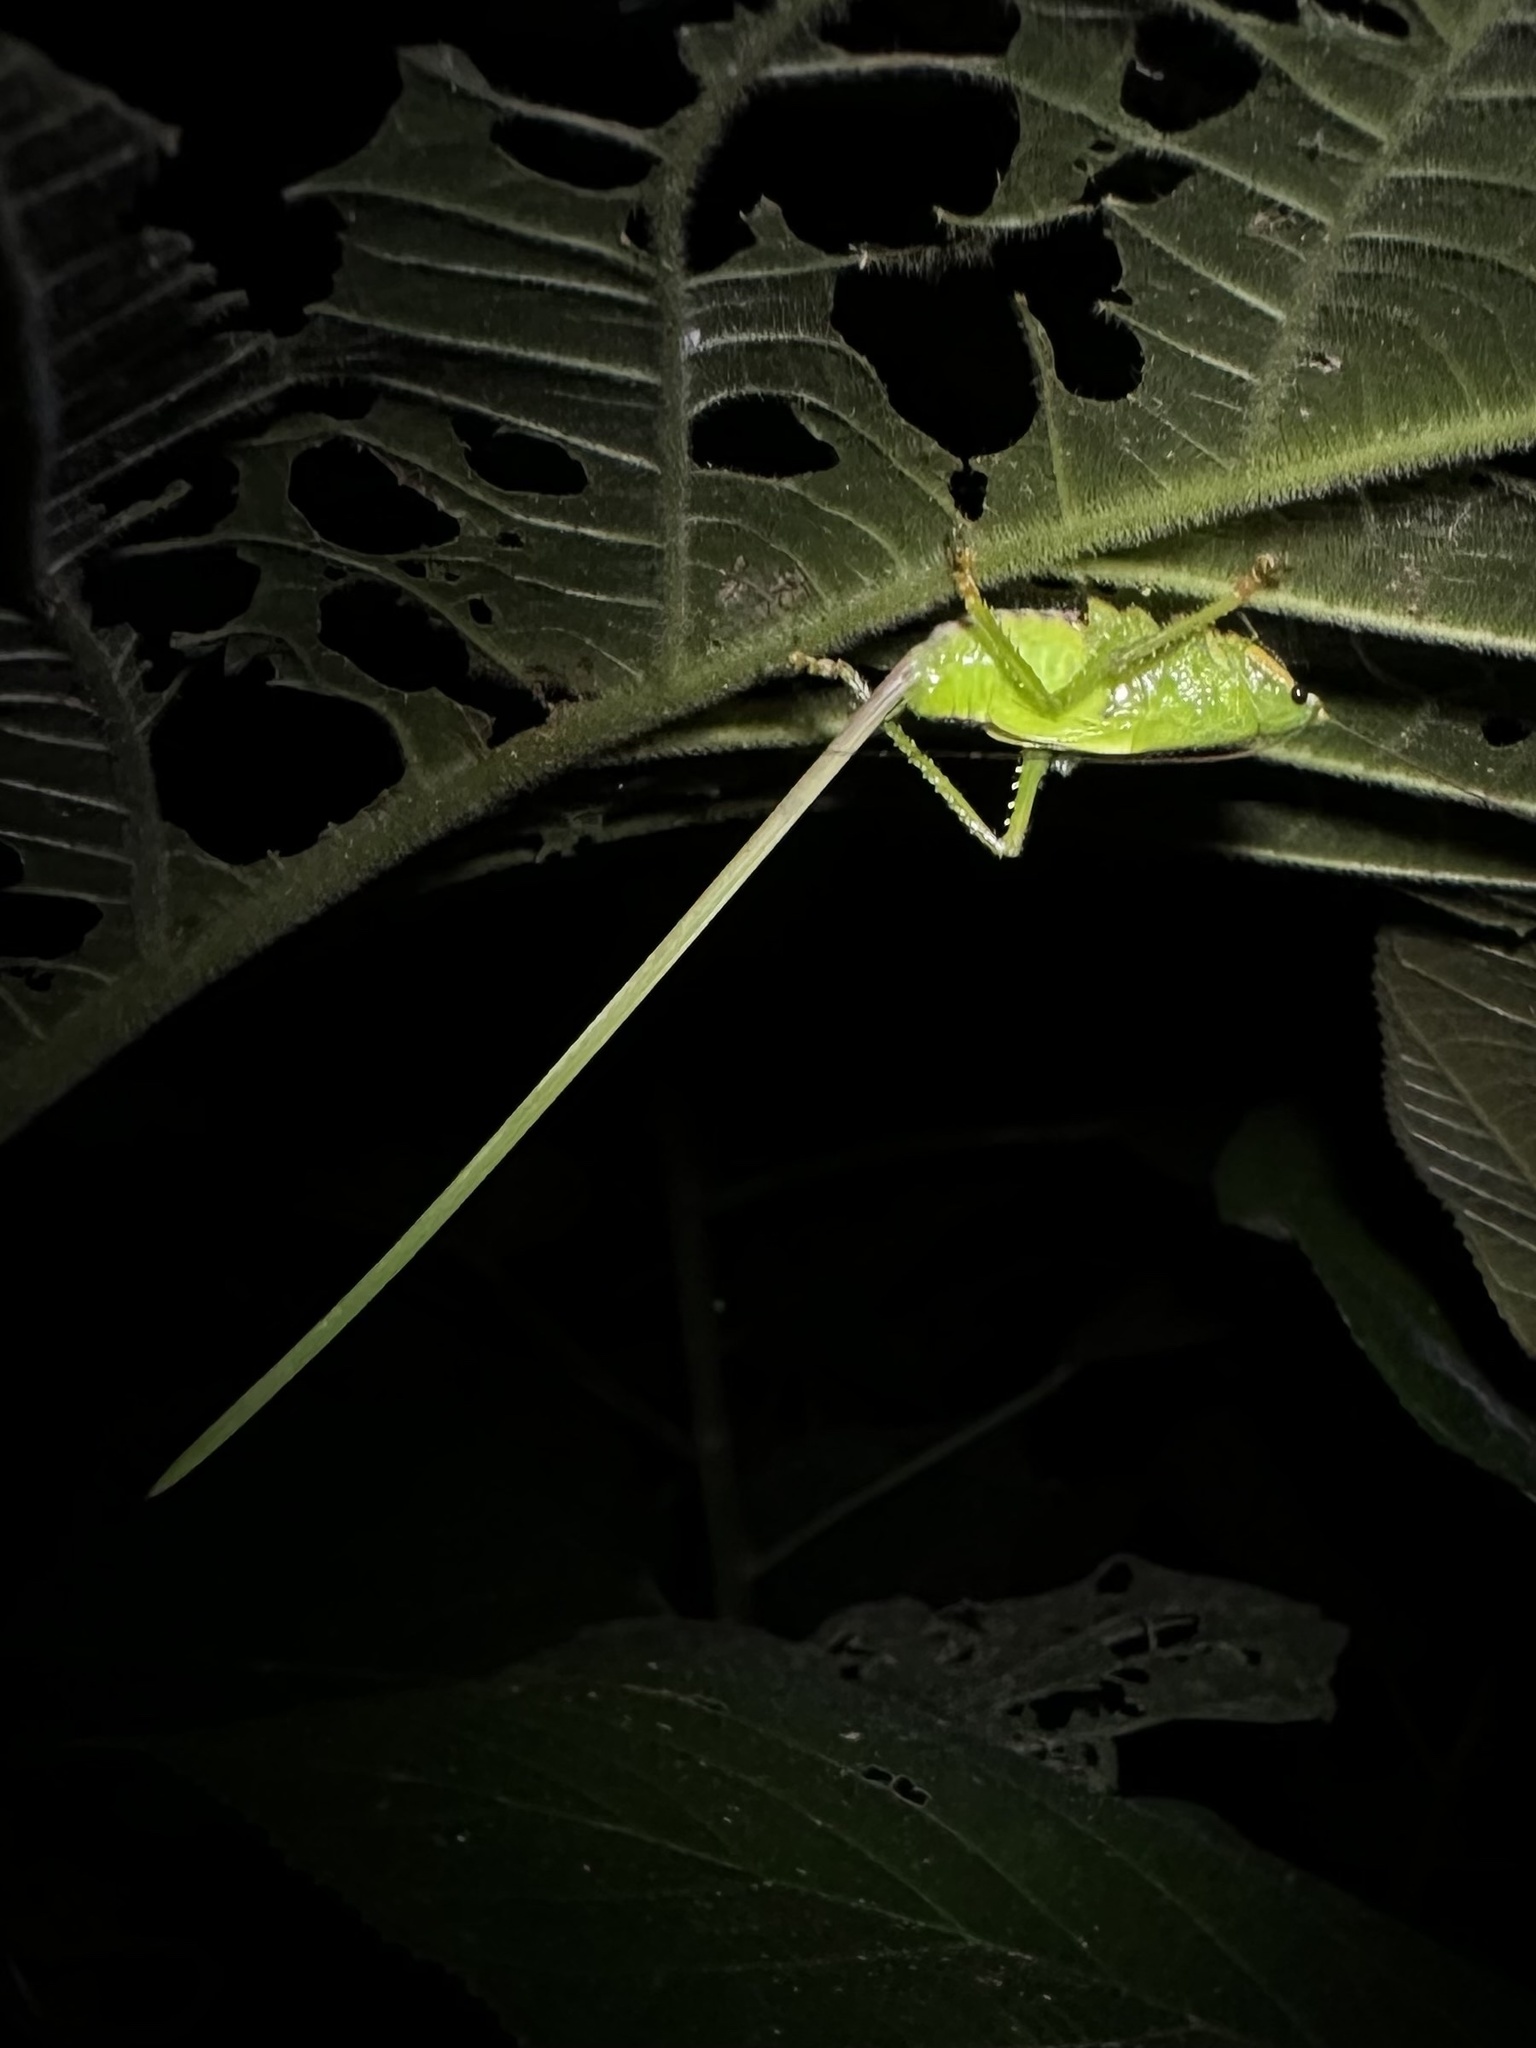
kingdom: Animalia
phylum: Arthropoda
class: Insecta
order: Orthoptera
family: Tettigoniidae
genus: Copiphora
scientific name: Copiphora brevirostris
